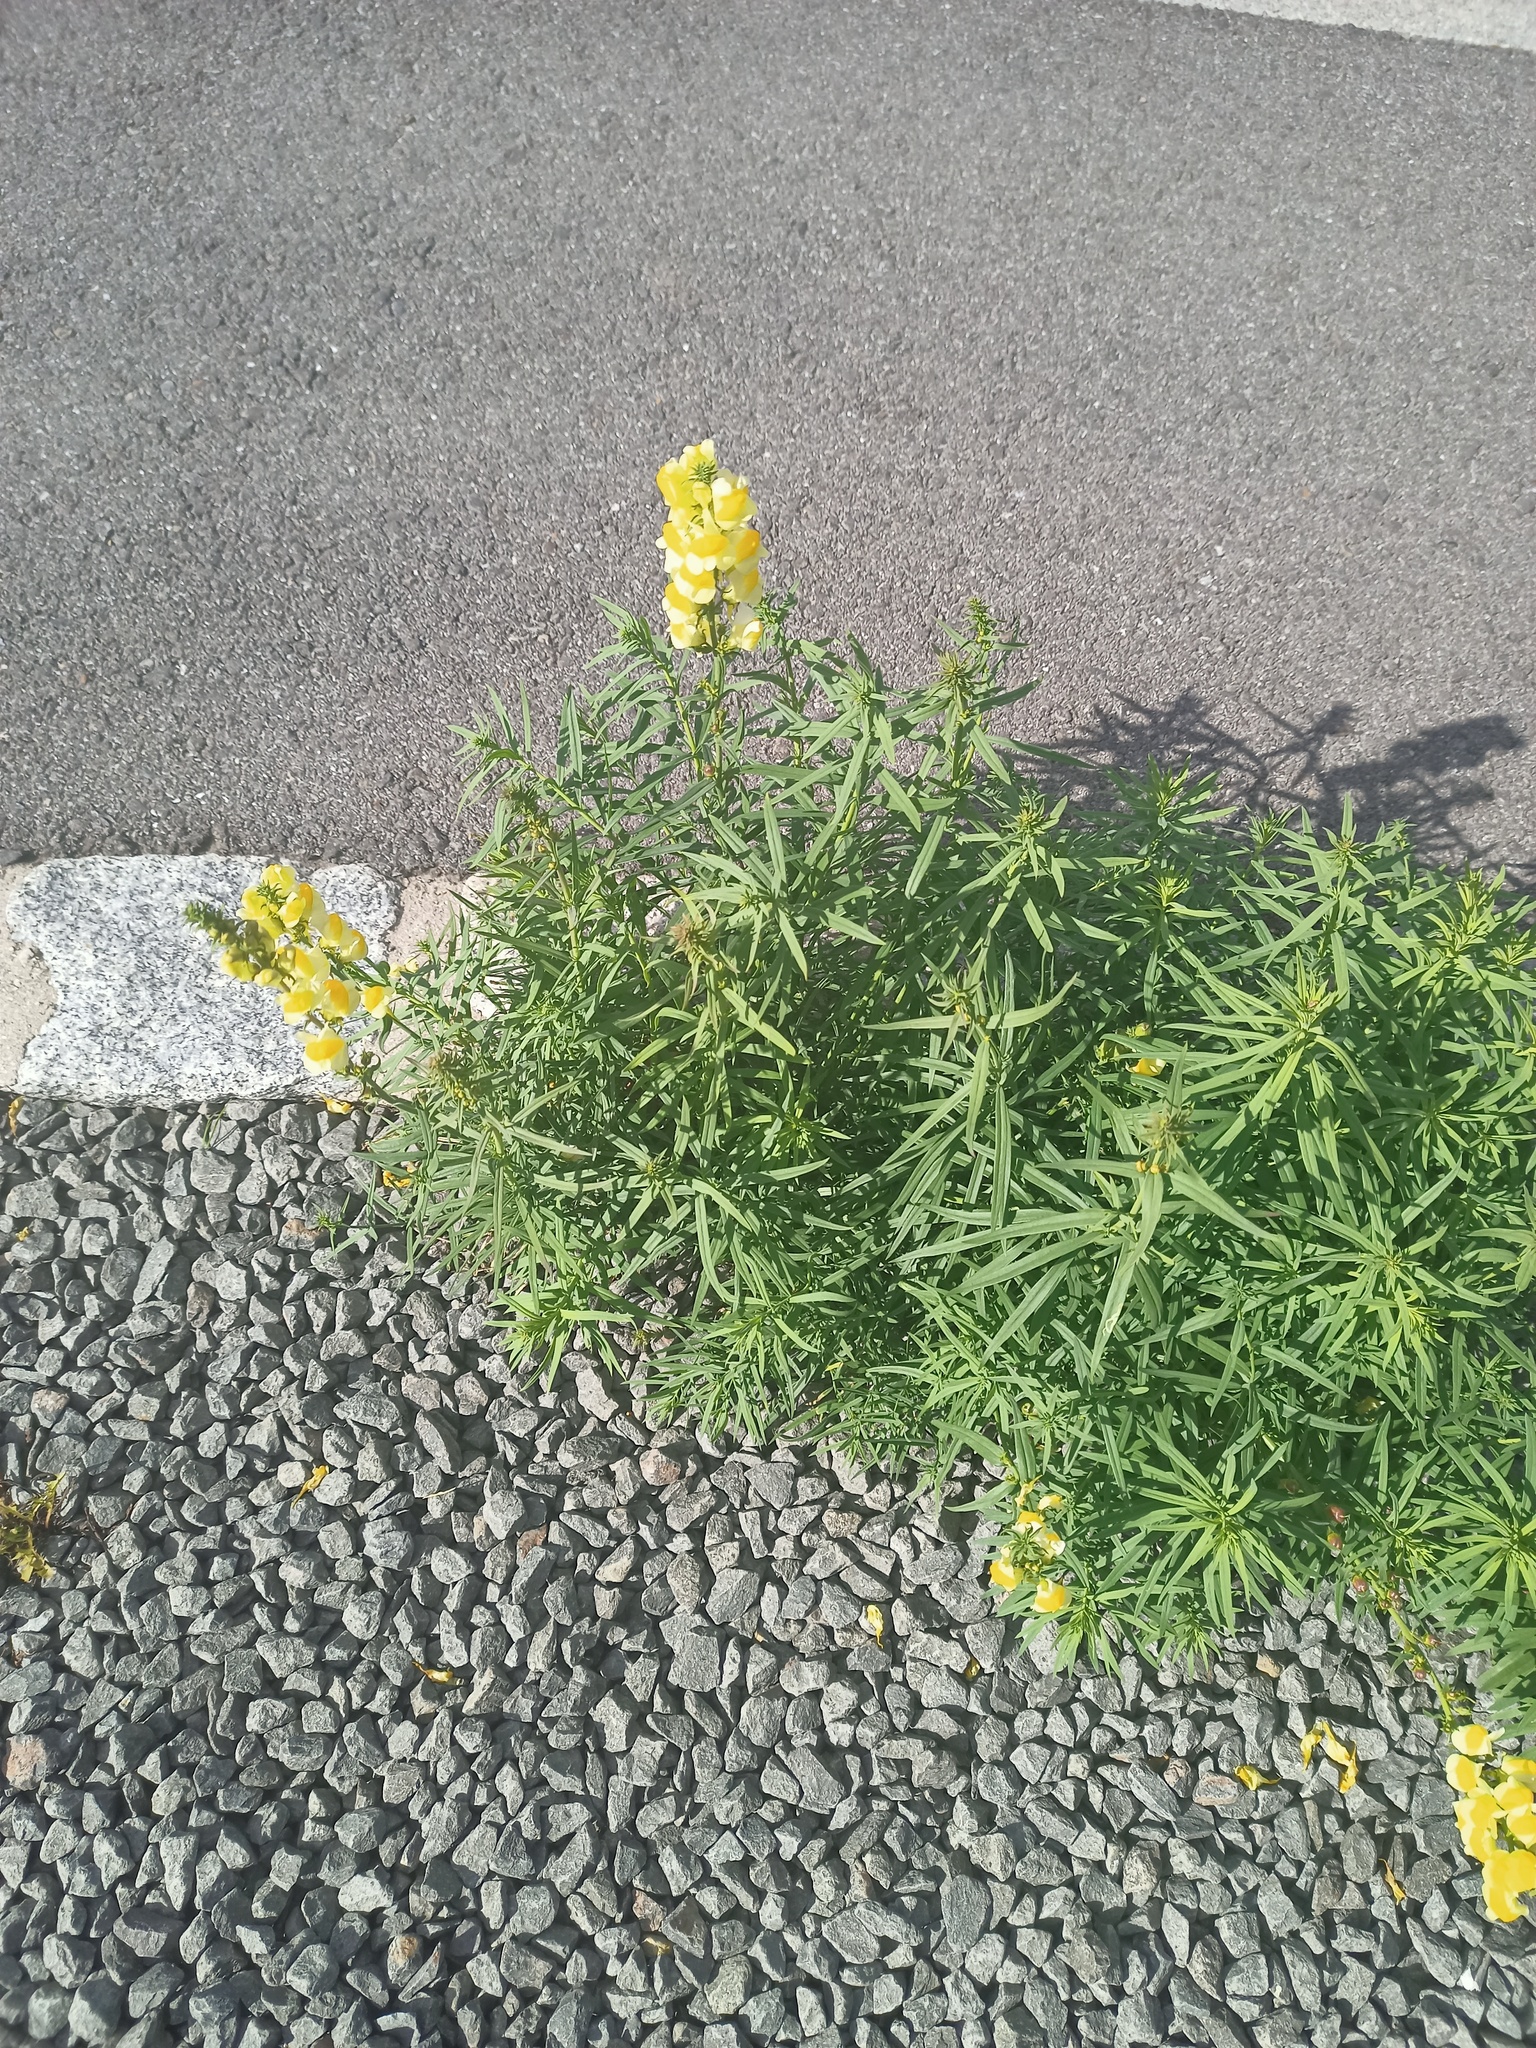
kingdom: Plantae
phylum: Tracheophyta
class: Magnoliopsida
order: Lamiales
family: Plantaginaceae
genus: Linaria
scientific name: Linaria vulgaris
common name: Butter and eggs
